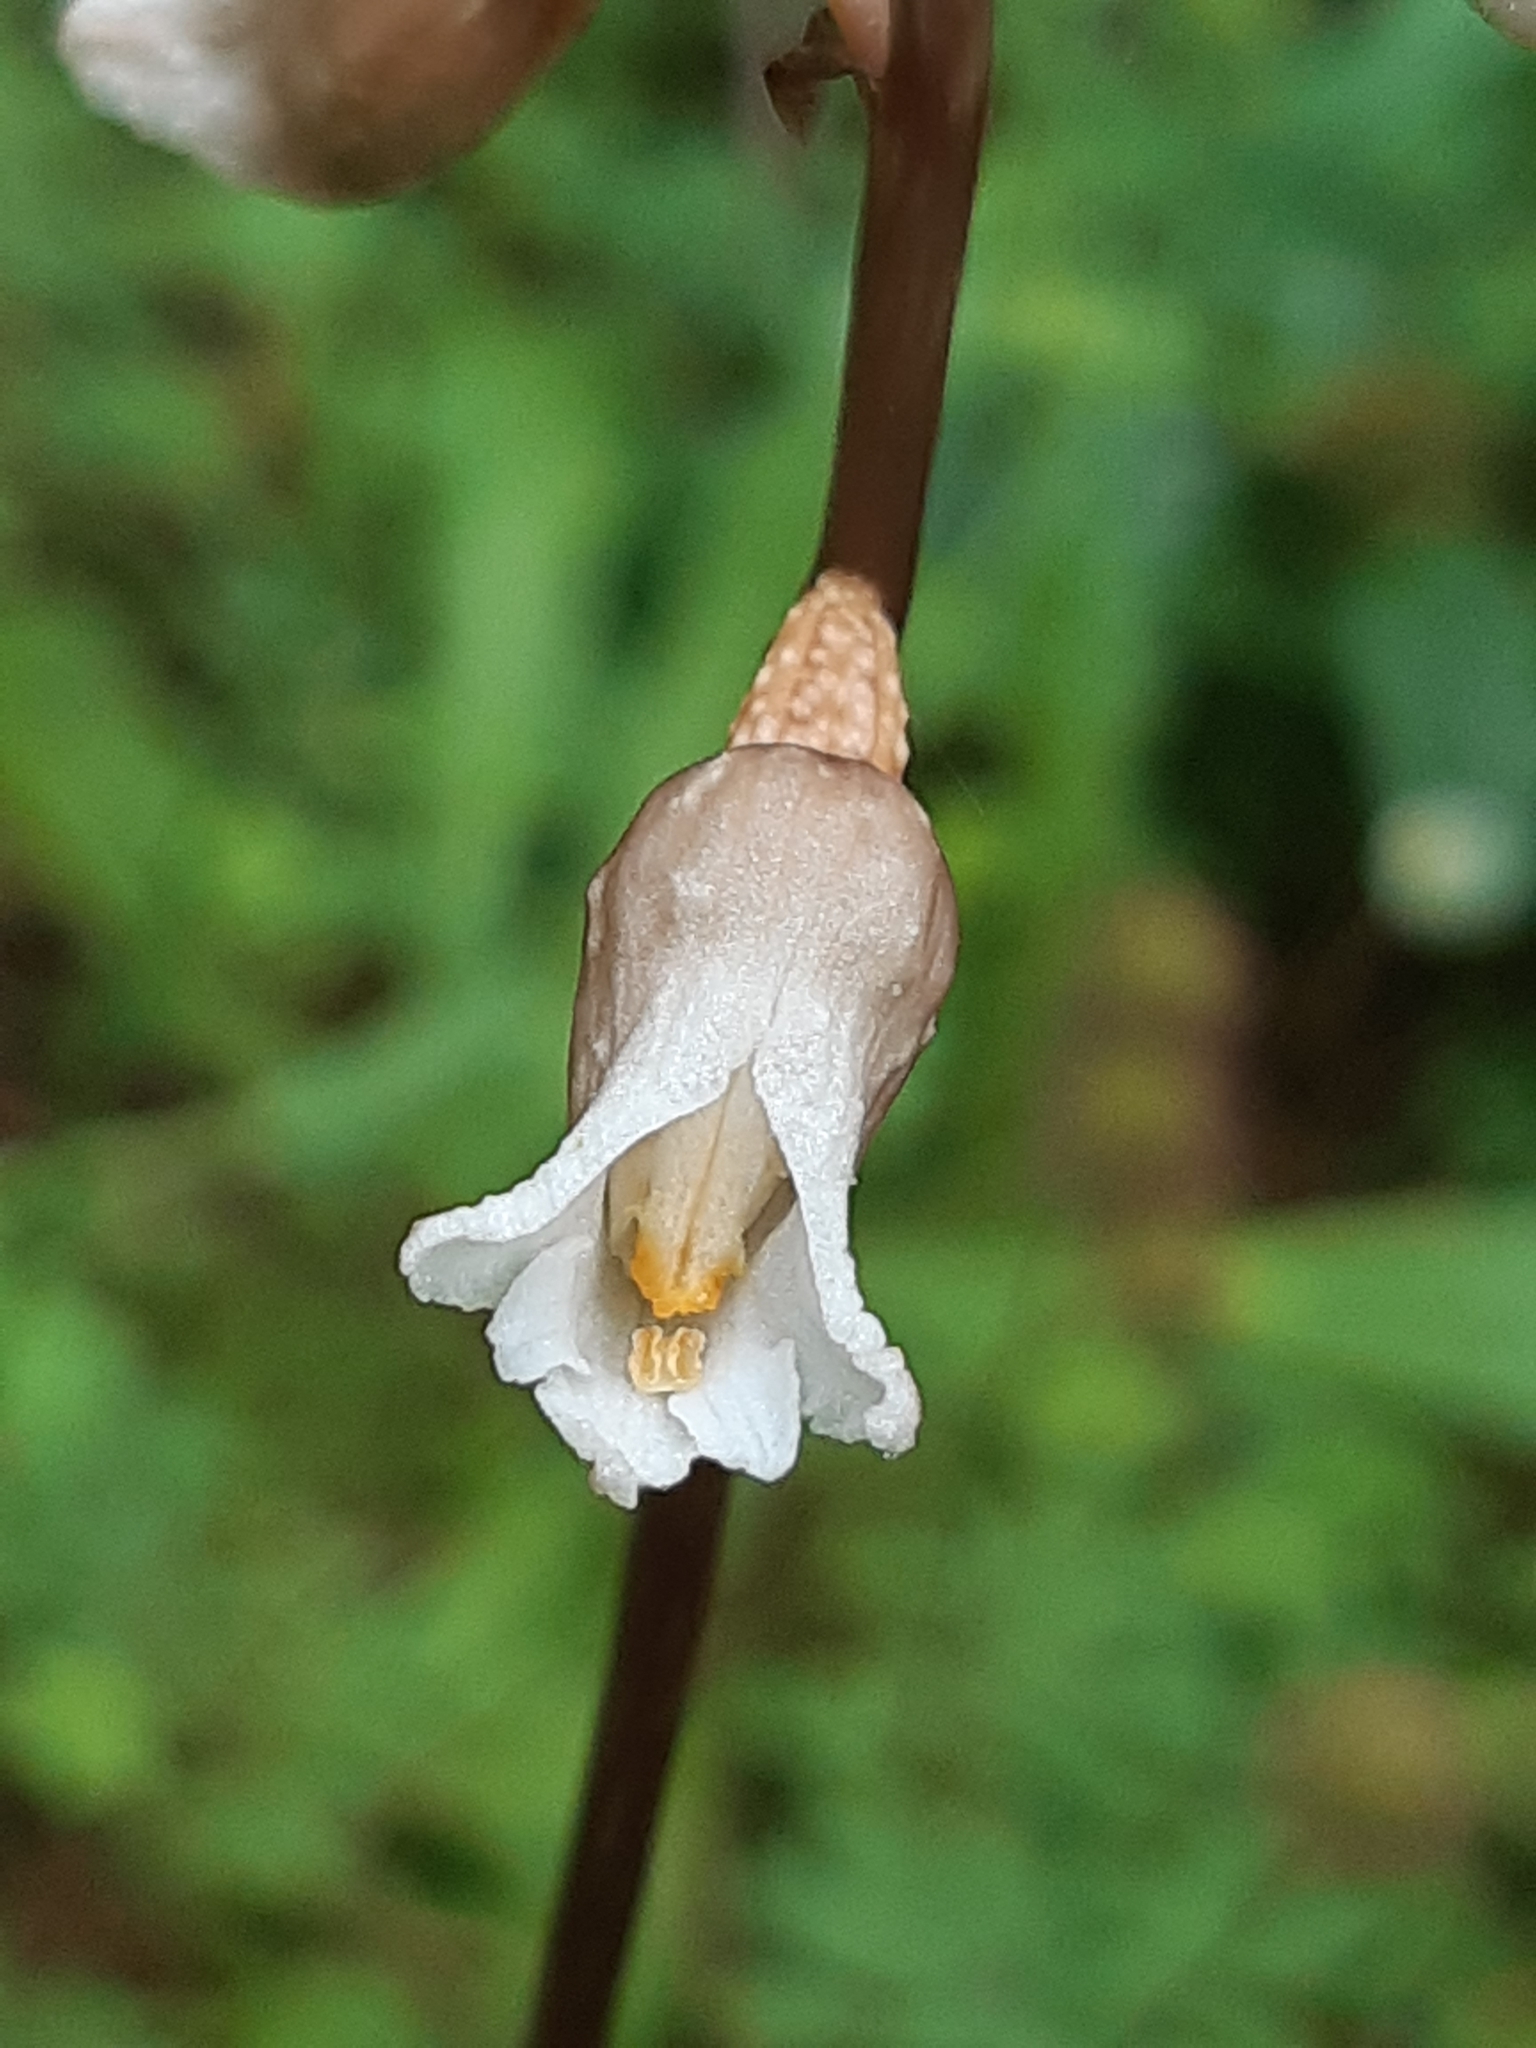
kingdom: Plantae
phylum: Tracheophyta
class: Liliopsida
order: Asparagales
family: Orchidaceae
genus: Gastrodia
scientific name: Gastrodia sesamoides
